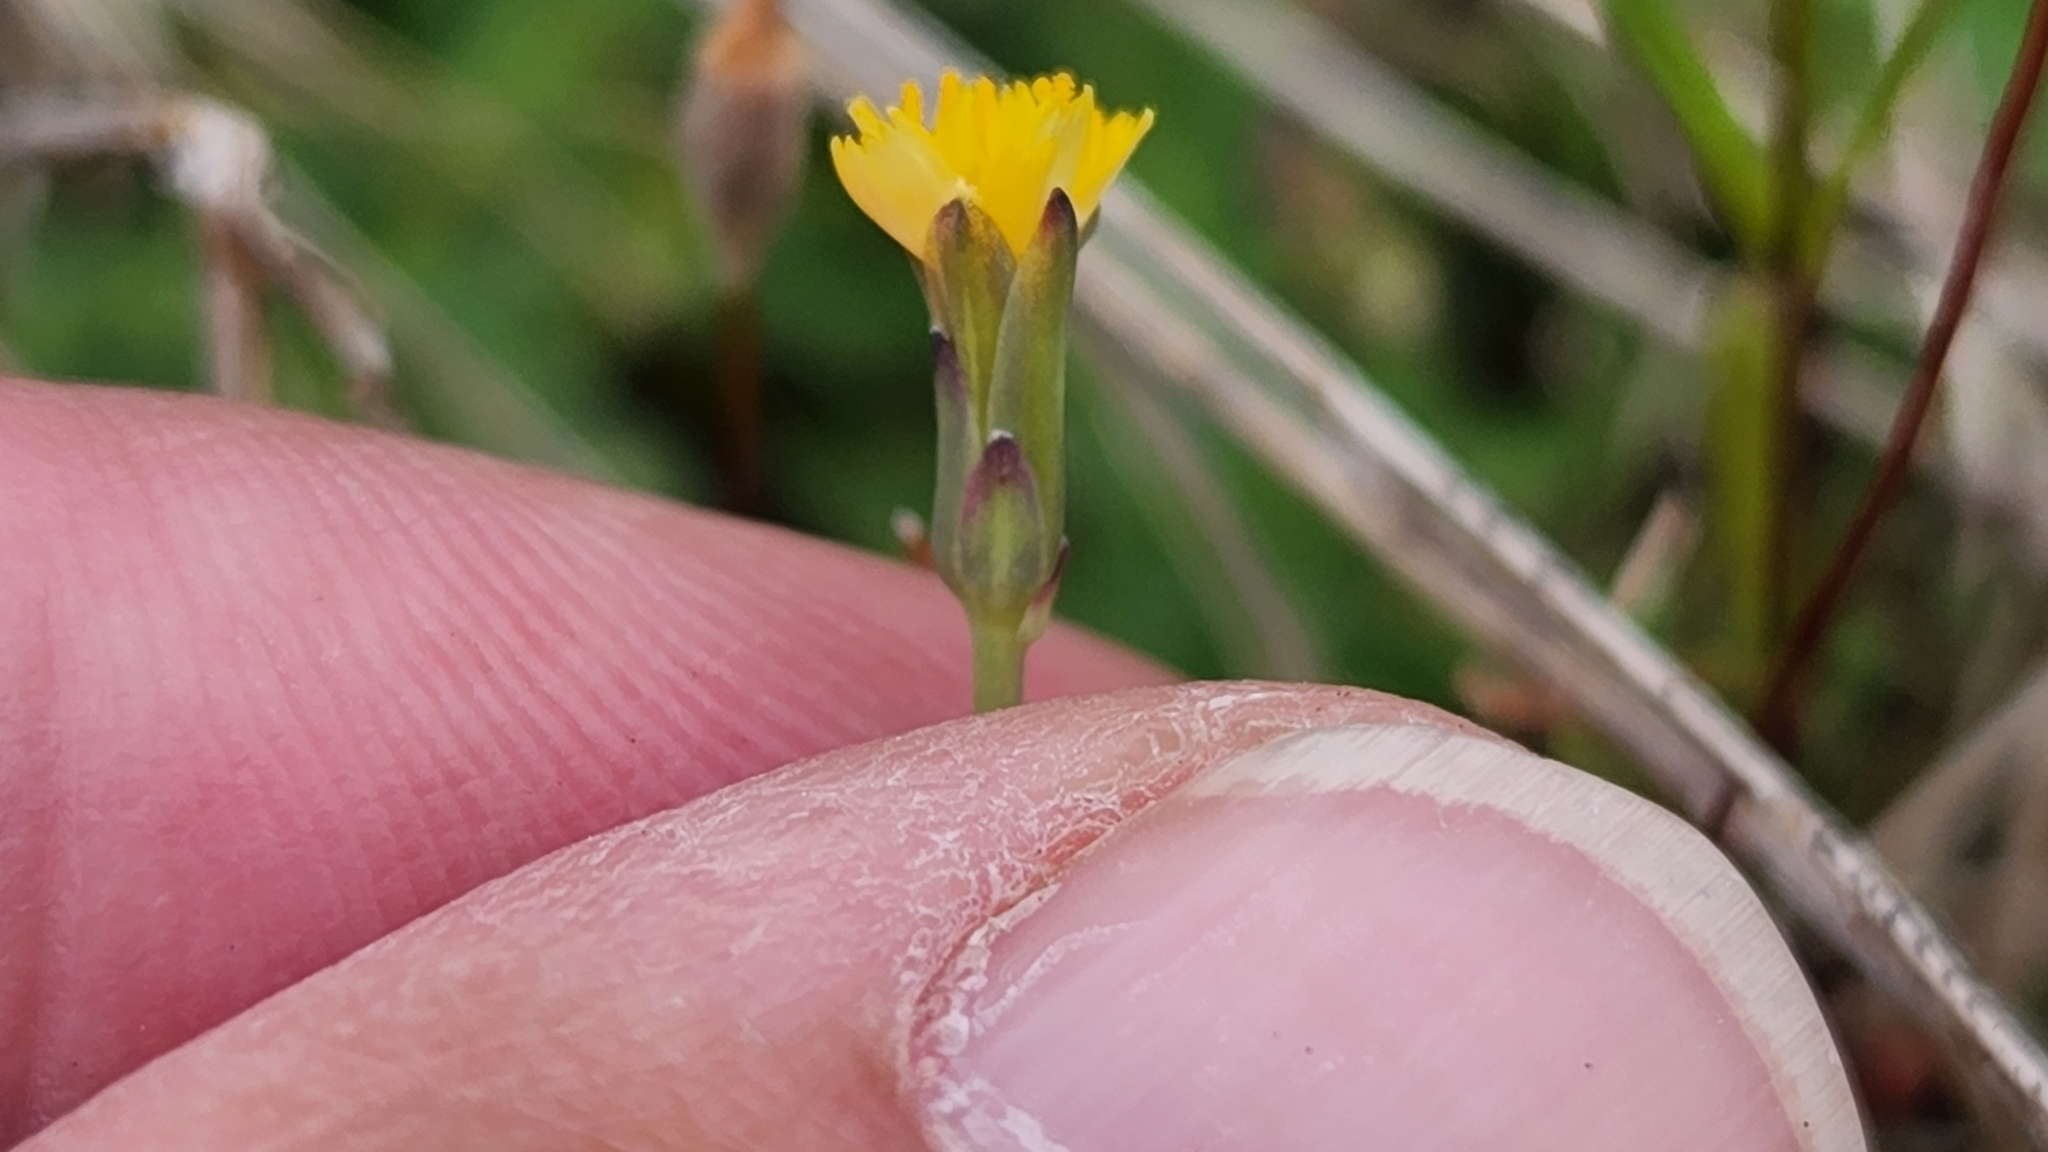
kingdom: Plantae
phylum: Tracheophyta
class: Magnoliopsida
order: Asterales
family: Asteraceae
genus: Hypochaeris
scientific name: Hypochaeris glabra
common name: Smooth catsear
